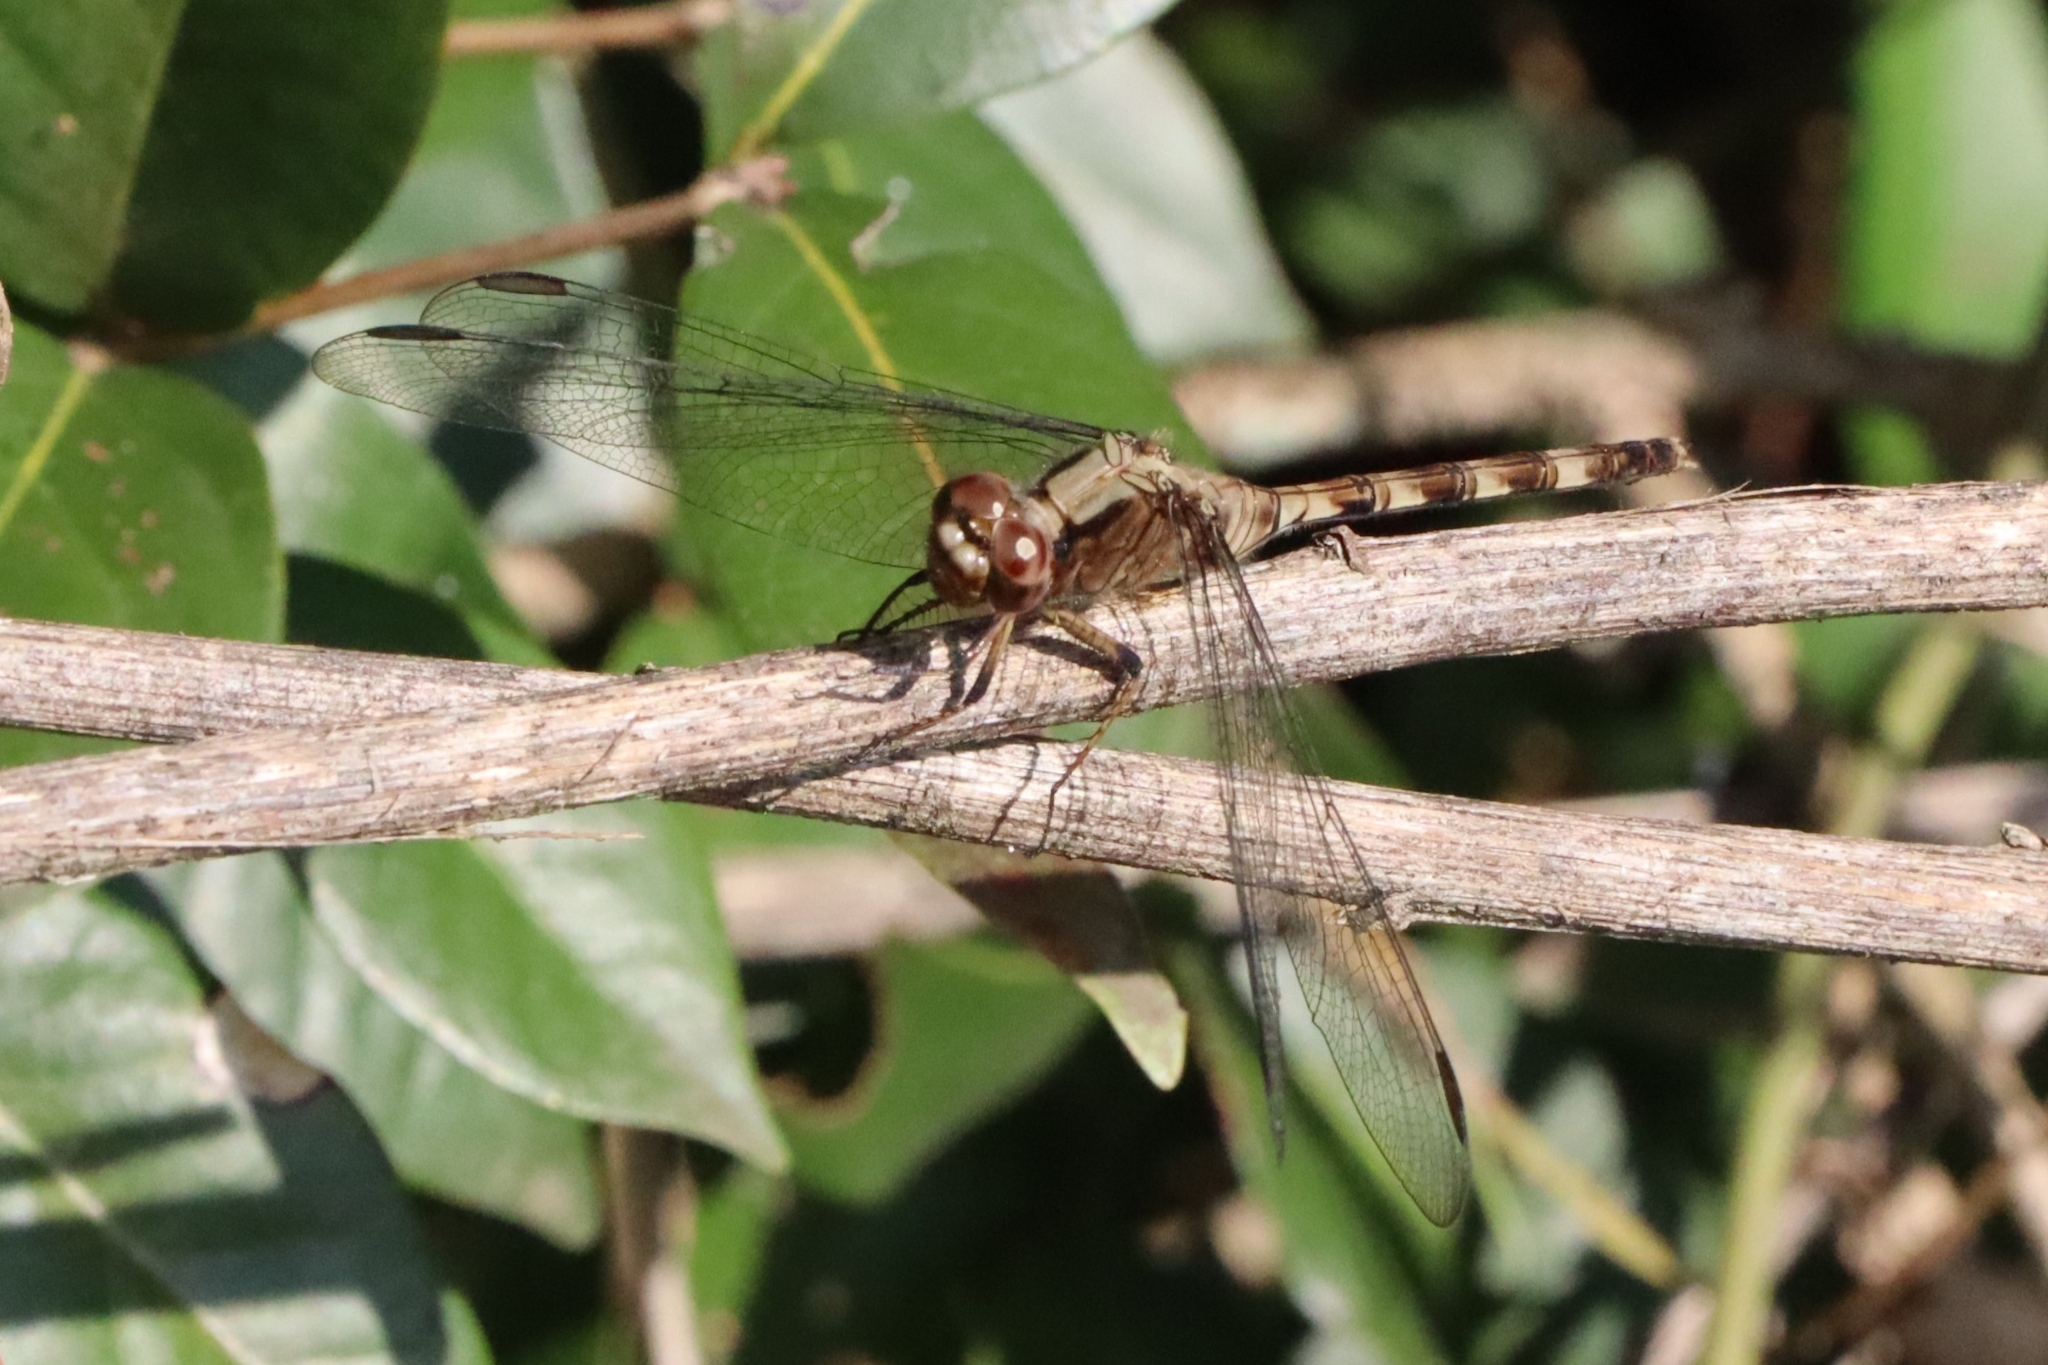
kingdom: Animalia
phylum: Arthropoda
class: Insecta
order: Odonata
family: Libellulidae
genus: Erythemis
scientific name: Erythemis plebeja
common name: Pin-tailed pondhawk
